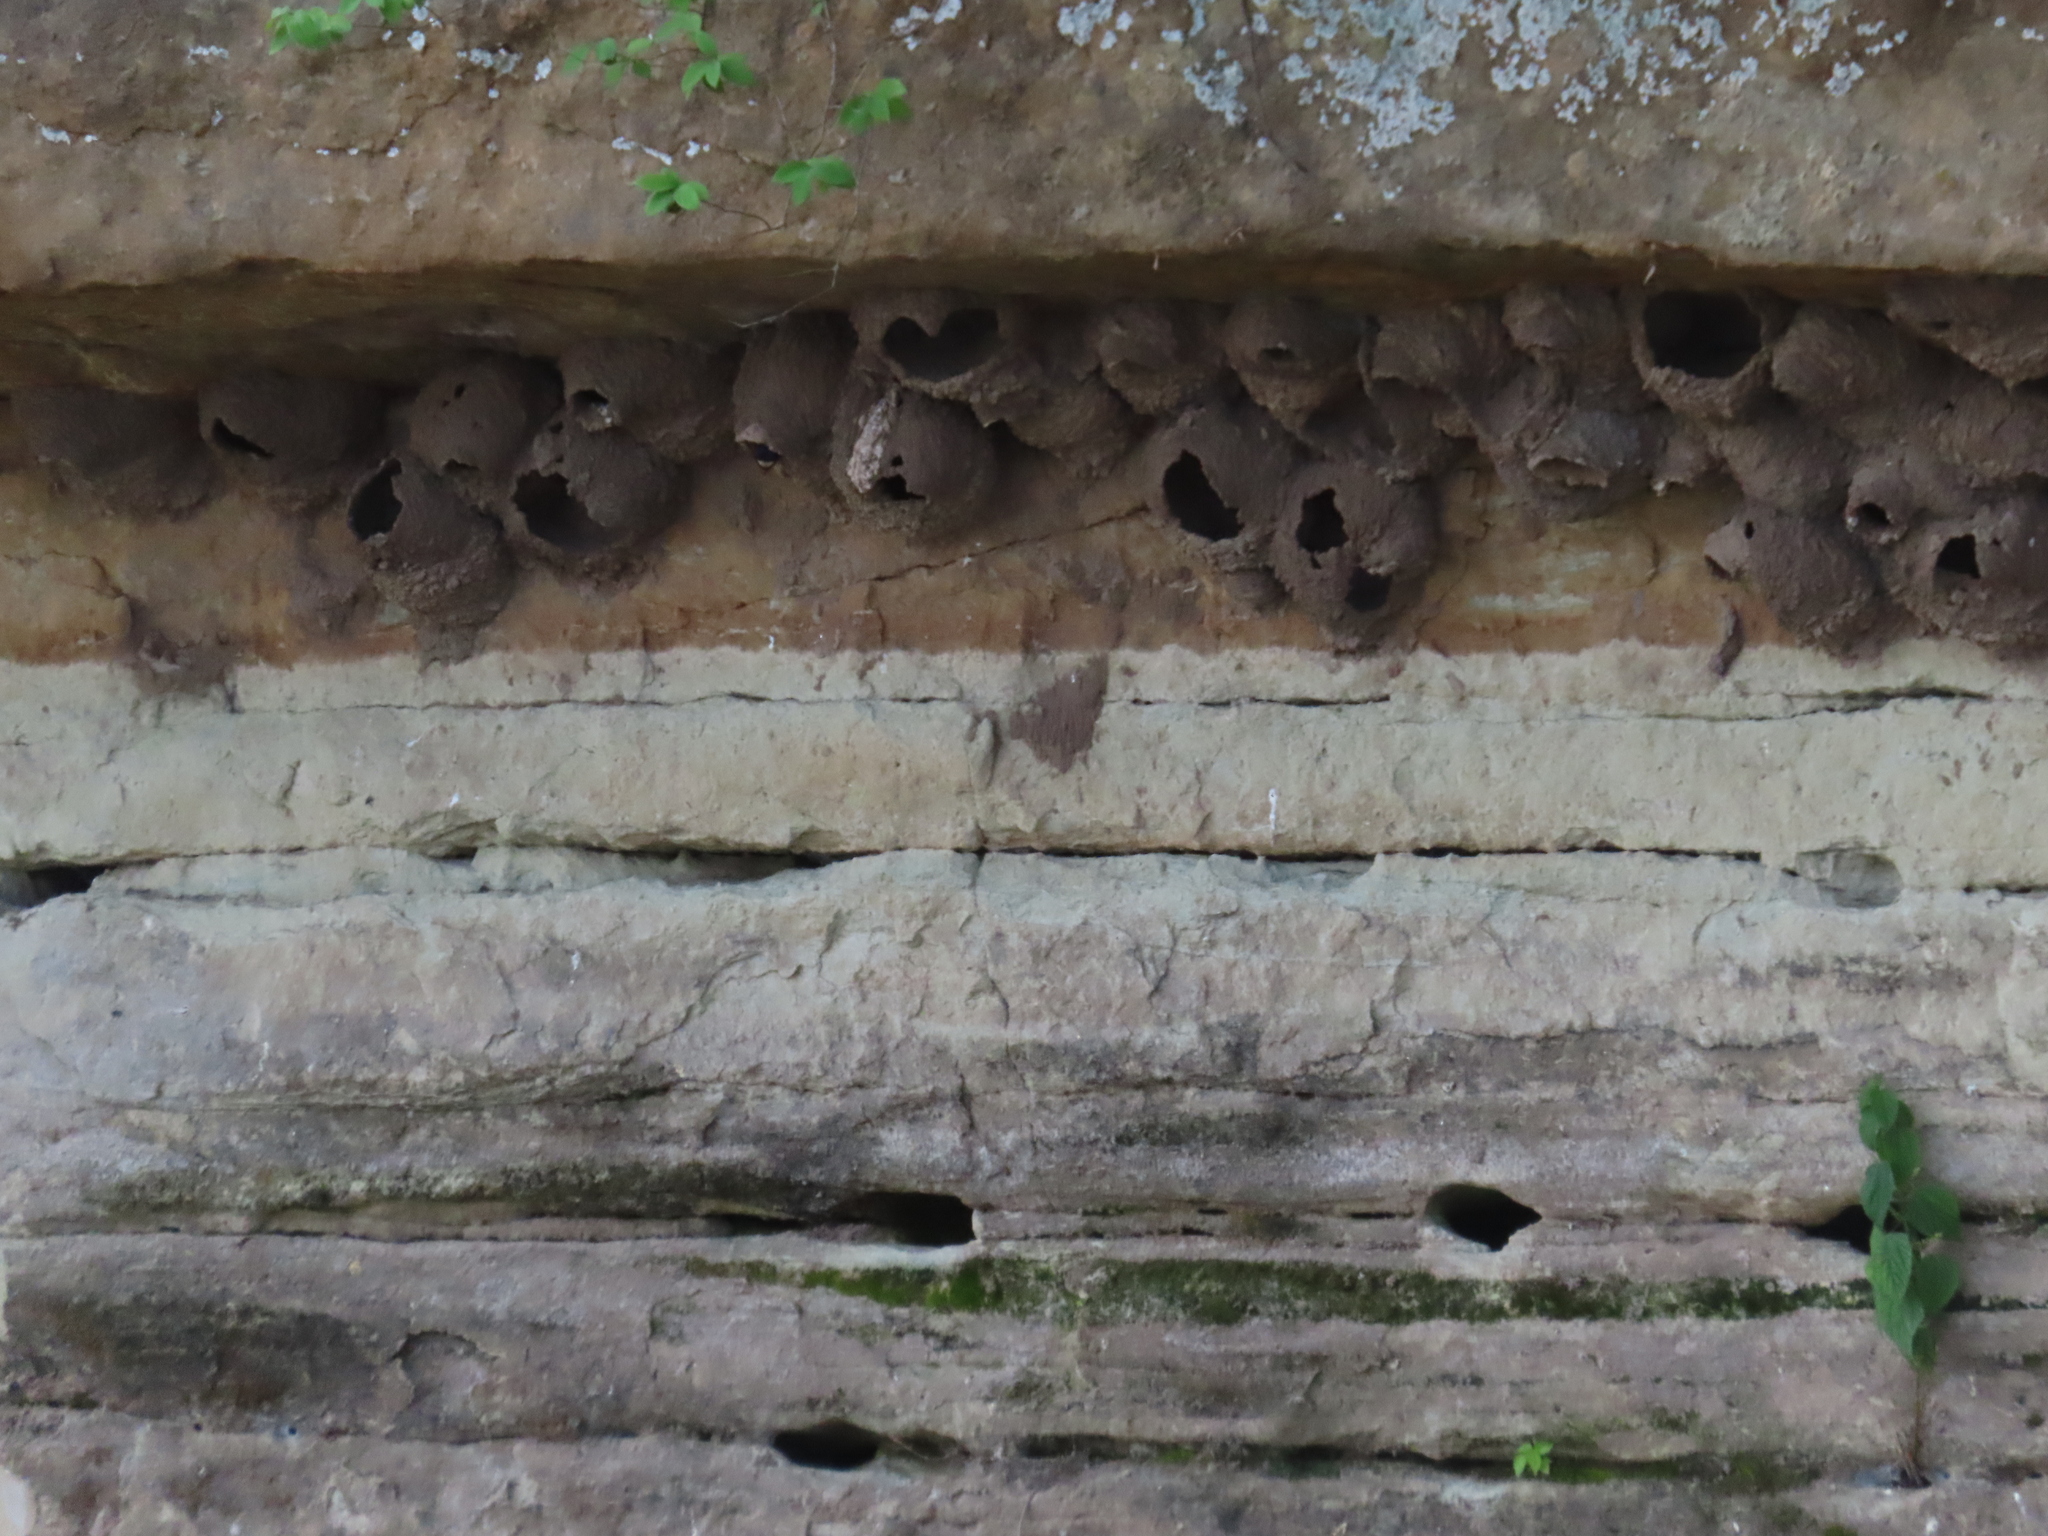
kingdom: Animalia
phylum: Chordata
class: Aves
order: Passeriformes
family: Hirundinidae
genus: Petrochelidon
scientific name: Petrochelidon pyrrhonota
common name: American cliff swallow
